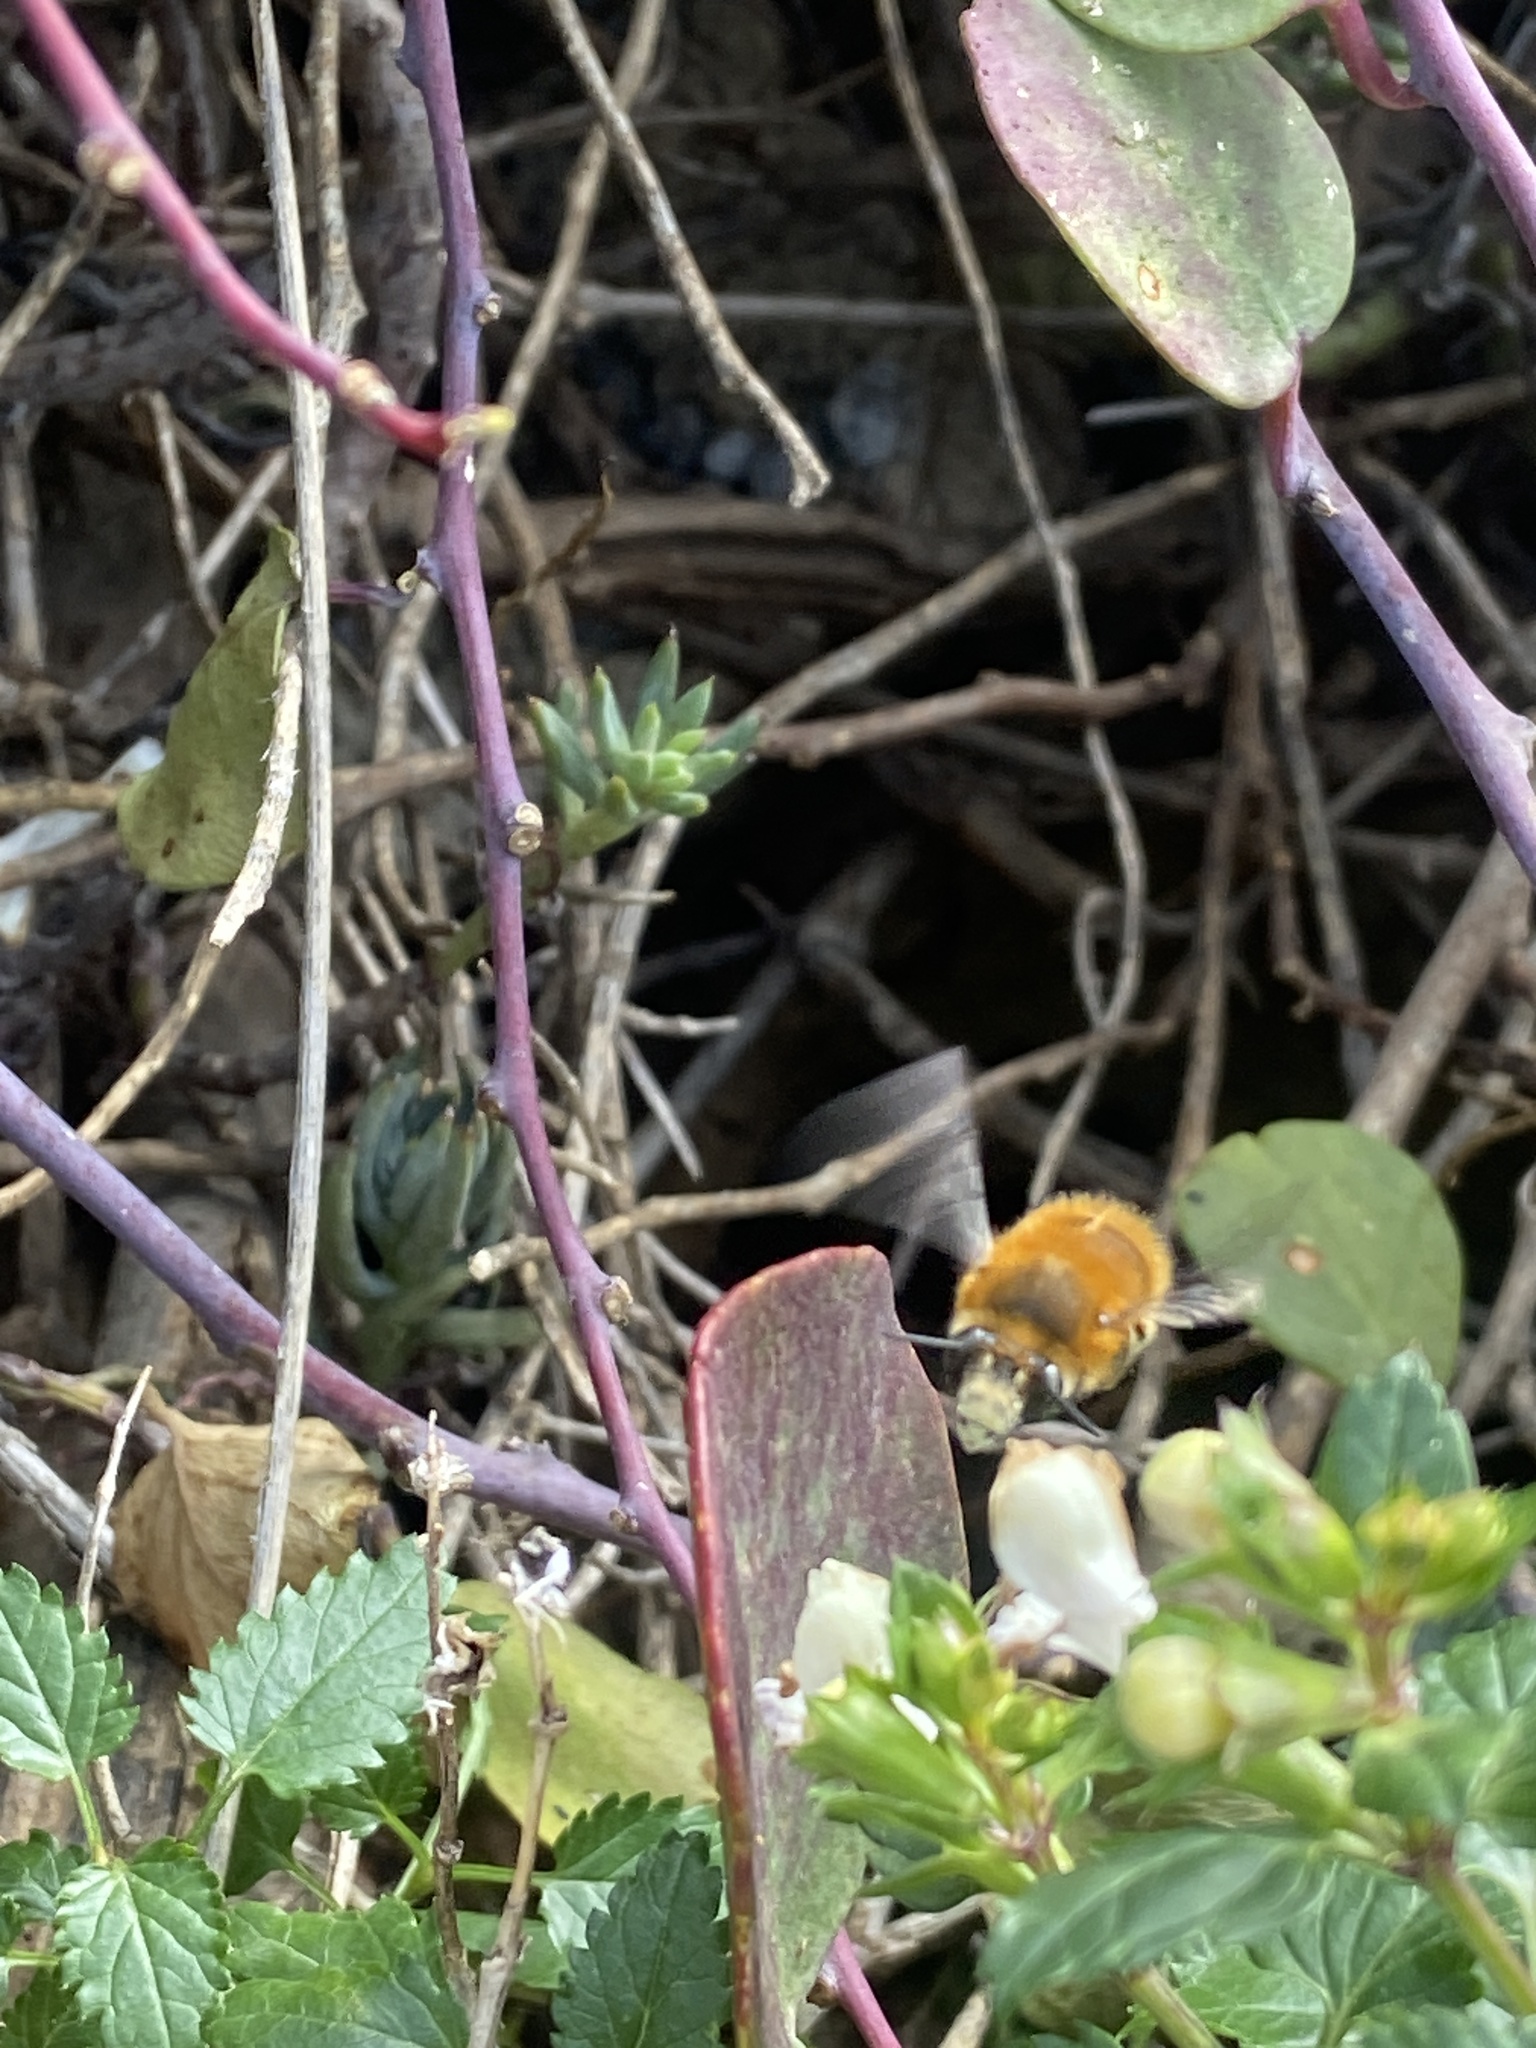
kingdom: Animalia
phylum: Arthropoda
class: Insecta
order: Hymenoptera
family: Apidae
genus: Anthophora
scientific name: Anthophora plumipes
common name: Hairy-footed flower bee
